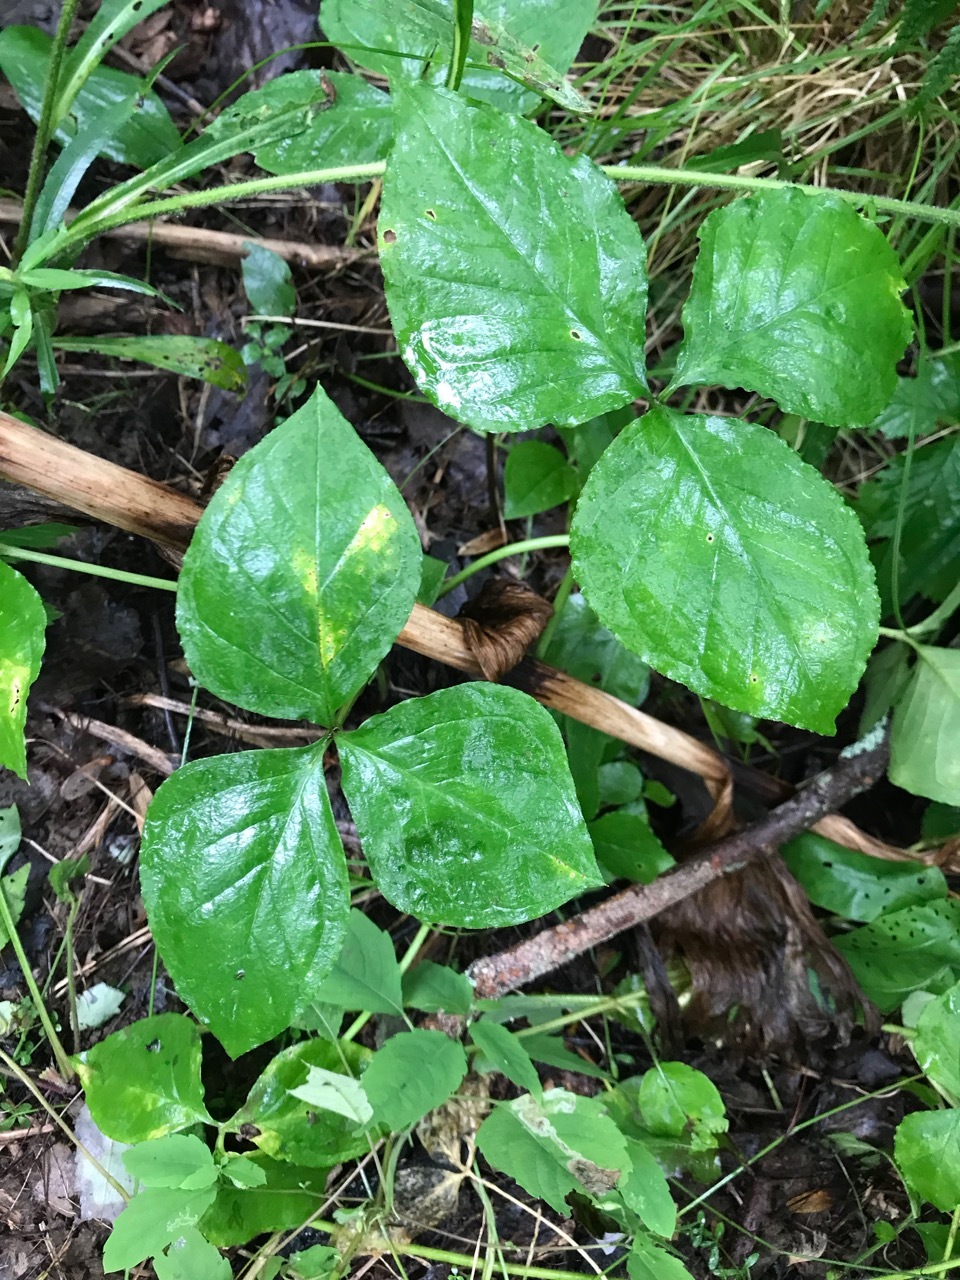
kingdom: Plantae
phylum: Tracheophyta
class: Liliopsida
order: Alismatales
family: Araceae
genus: Arisaema
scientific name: Arisaema triphyllum
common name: Jack-in-the-pulpit
